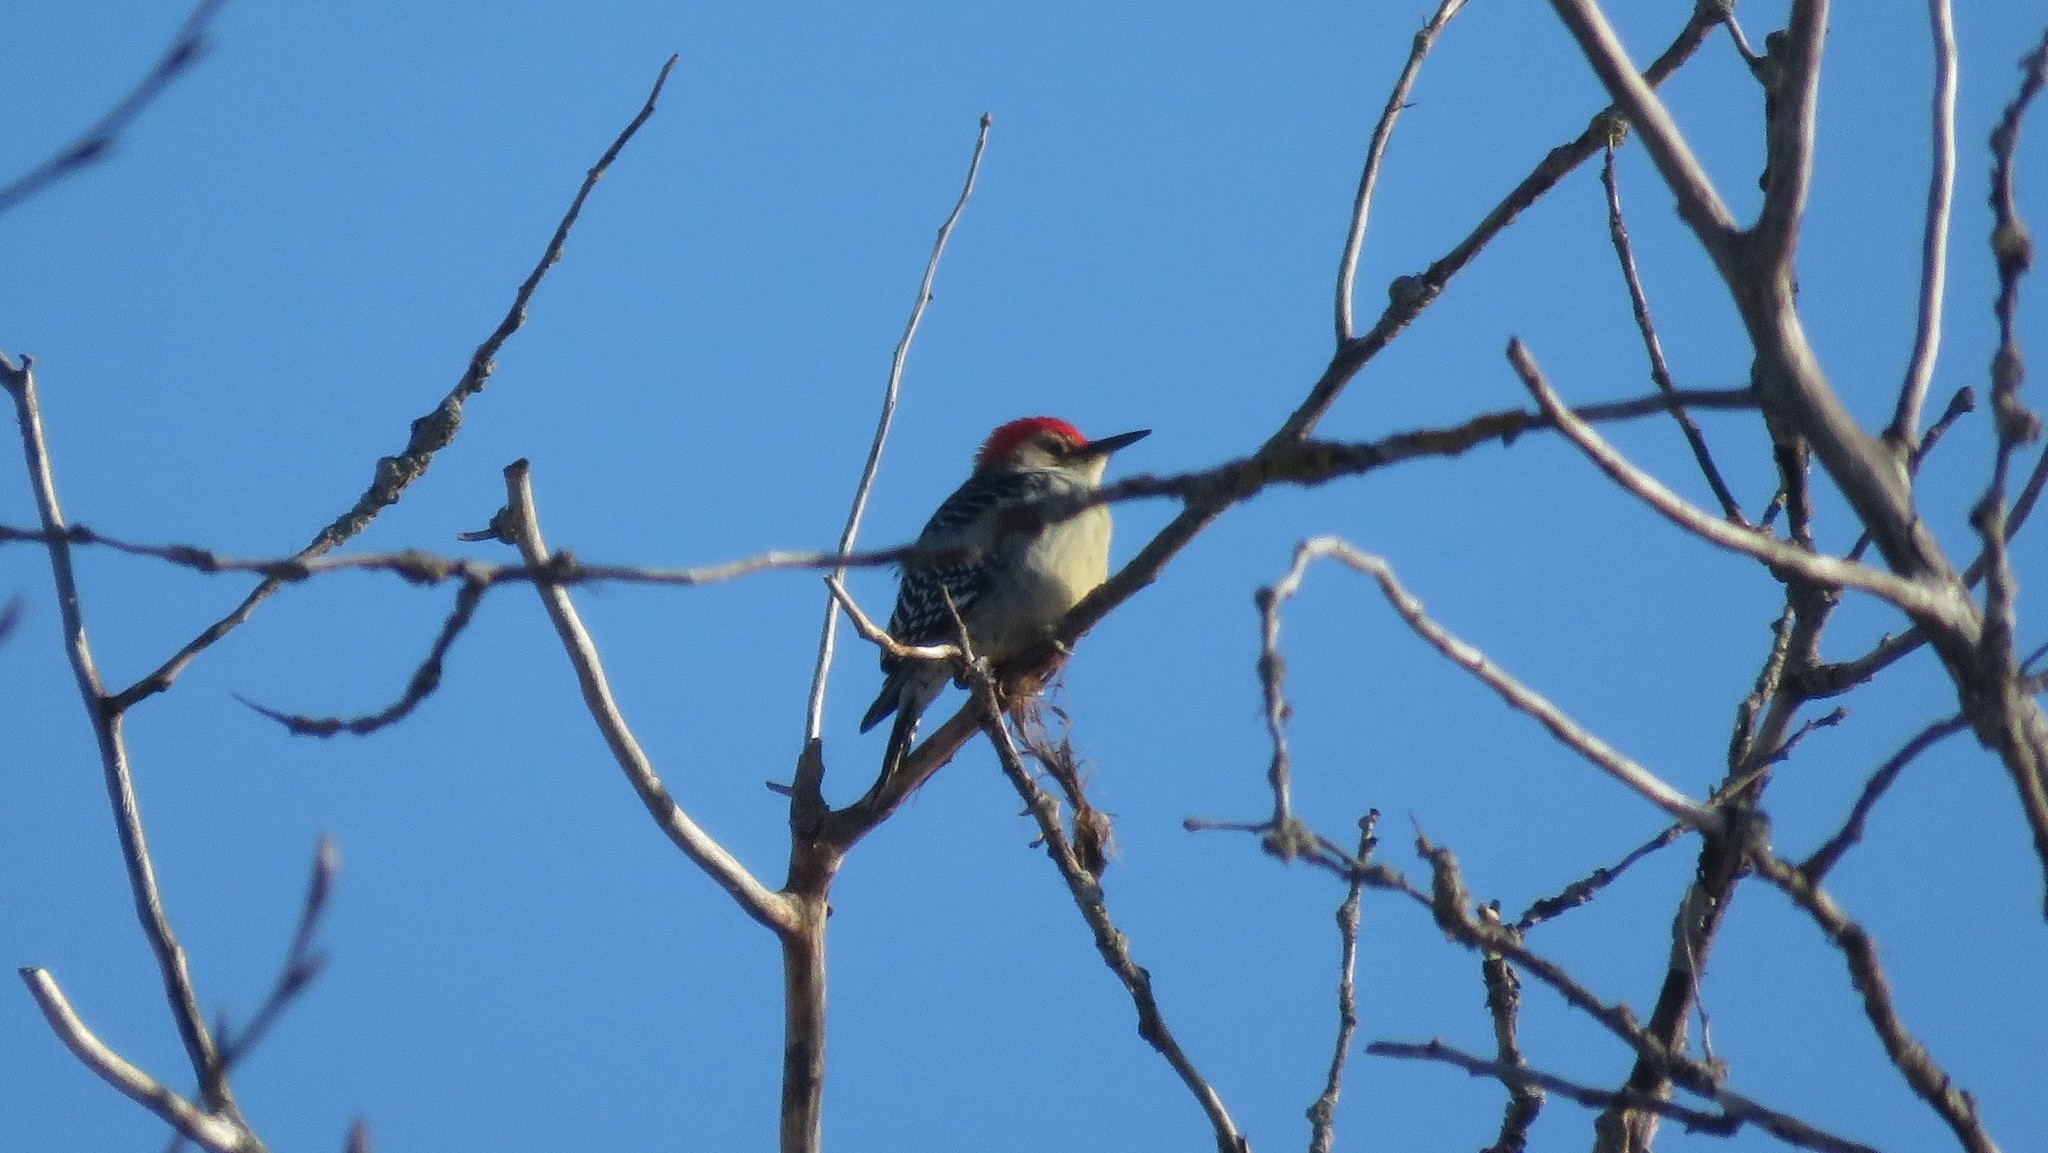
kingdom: Animalia
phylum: Chordata
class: Aves
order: Piciformes
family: Picidae
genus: Melanerpes
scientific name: Melanerpes carolinus
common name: Red-bellied woodpecker
